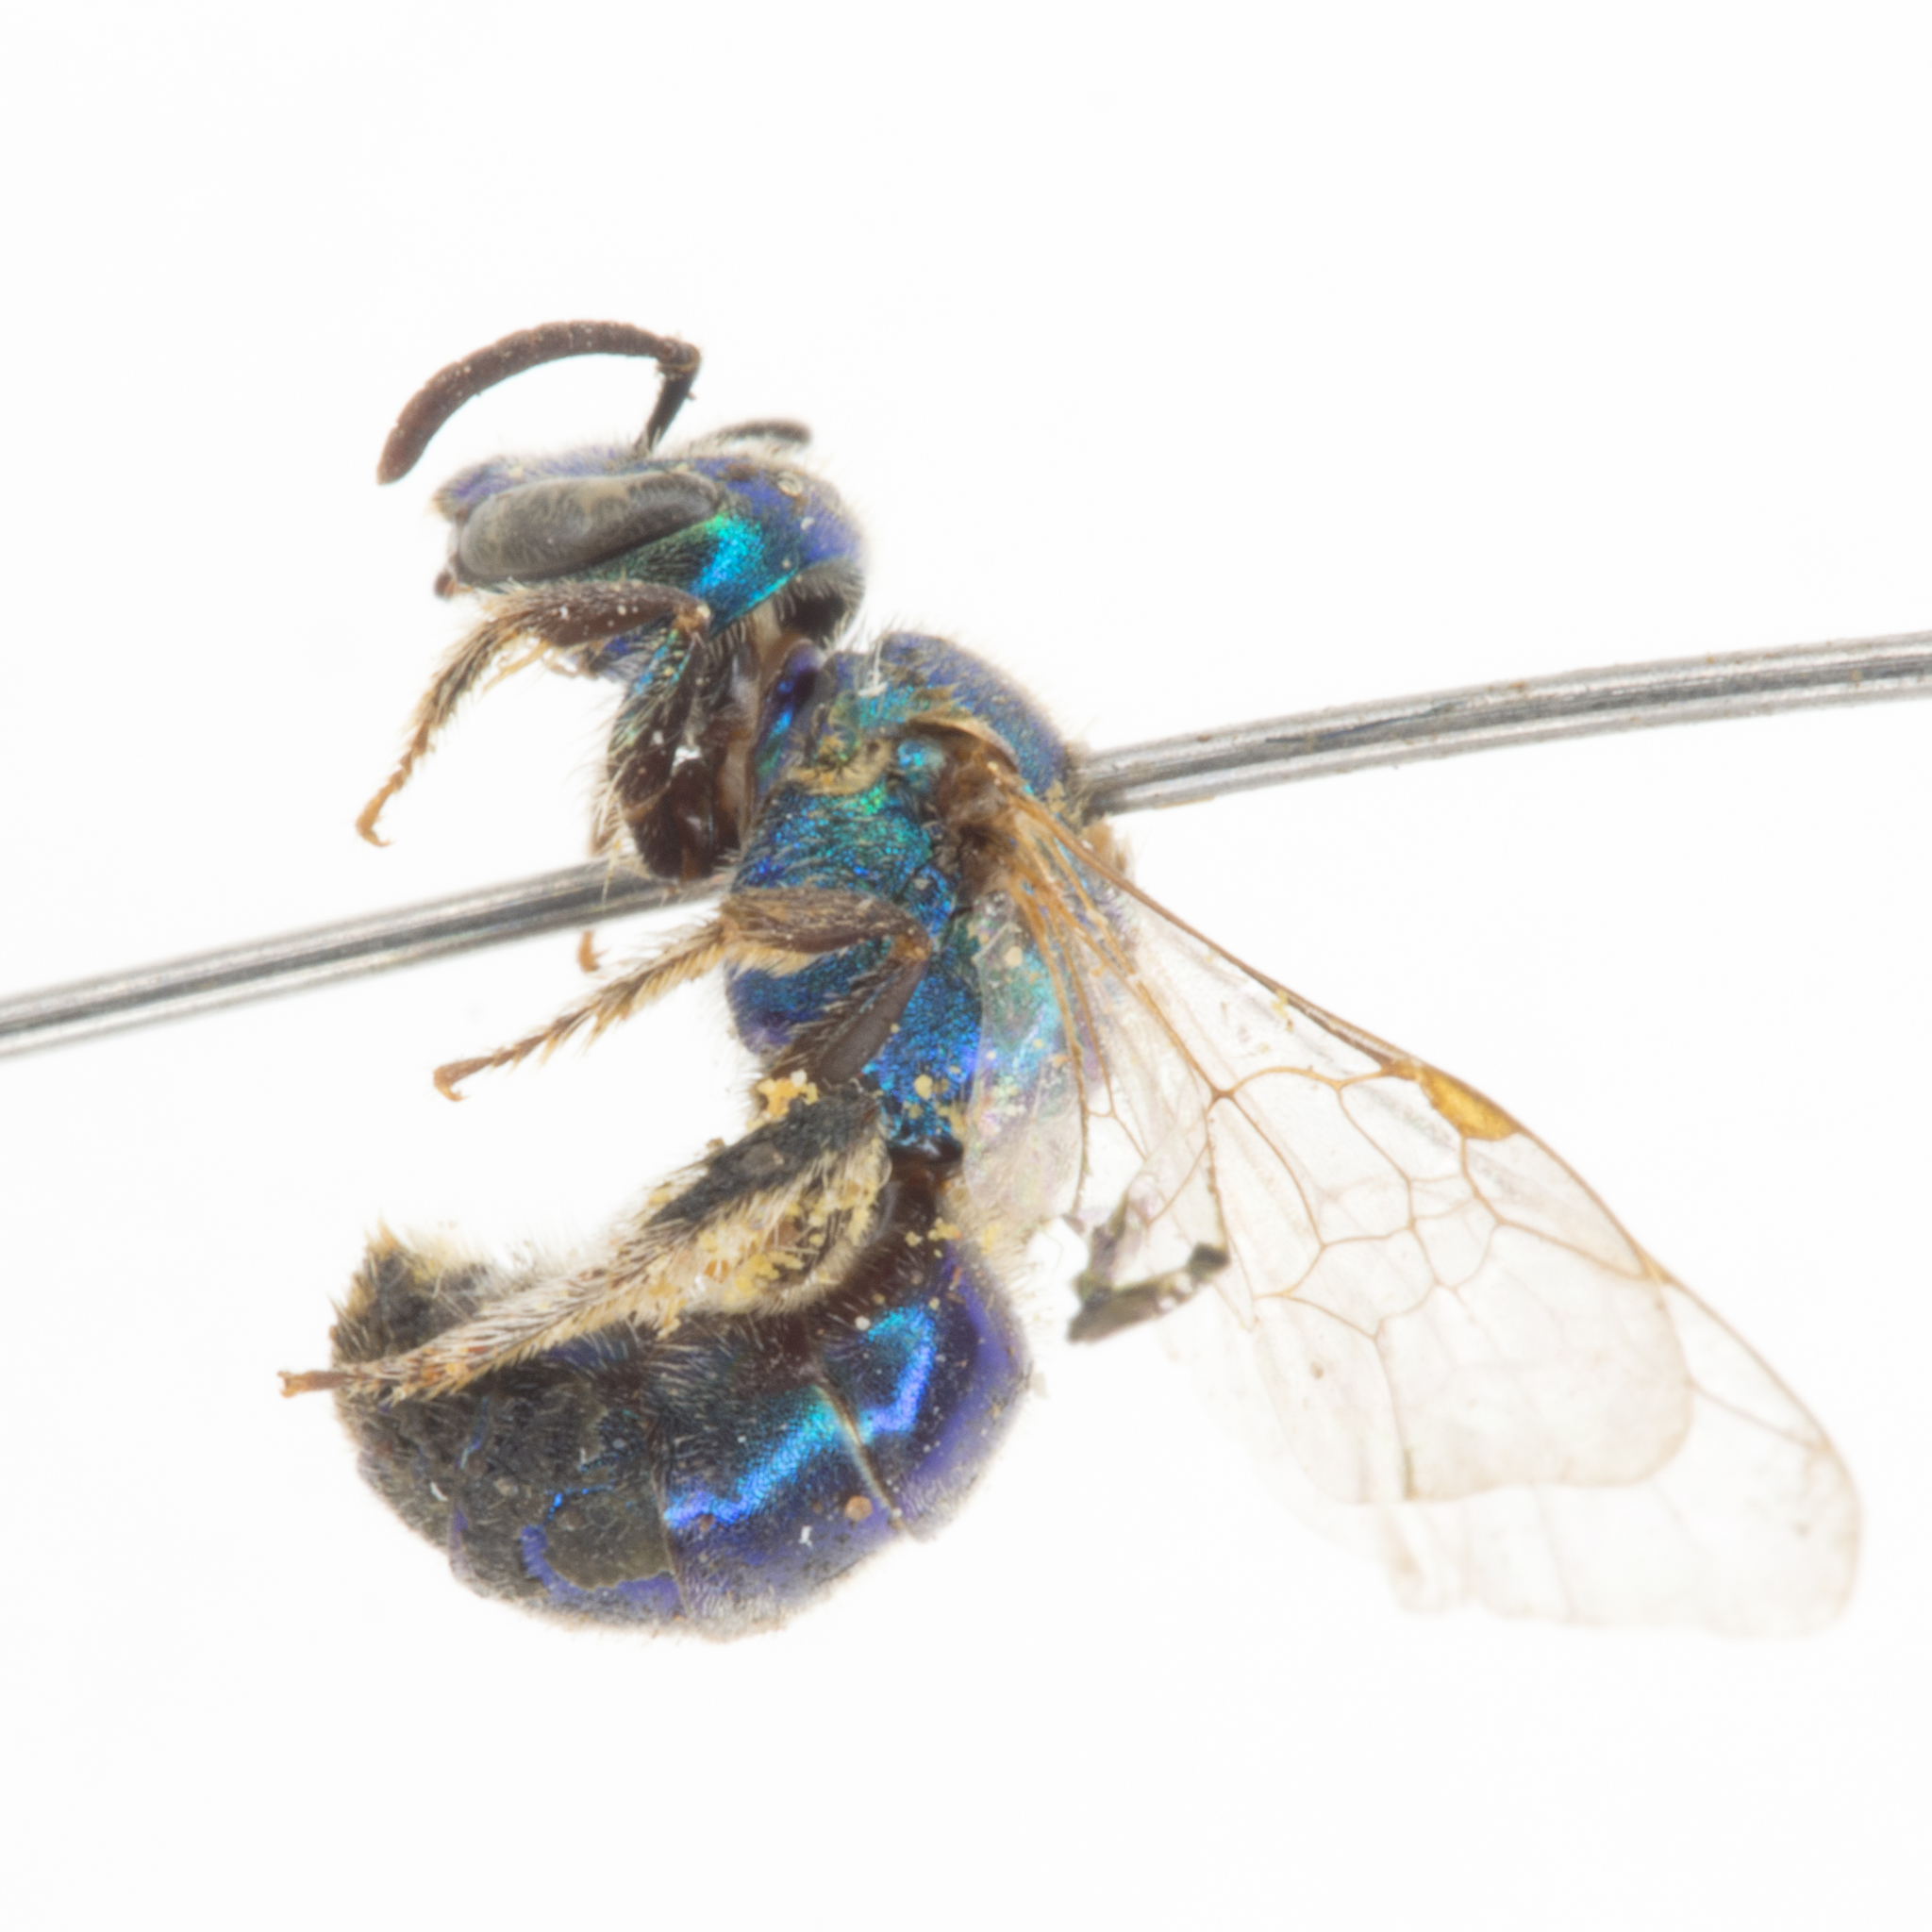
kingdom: Animalia
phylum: Arthropoda
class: Insecta
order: Hymenoptera
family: Halictidae
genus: Augochlorella
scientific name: Augochlorella pomoniella
